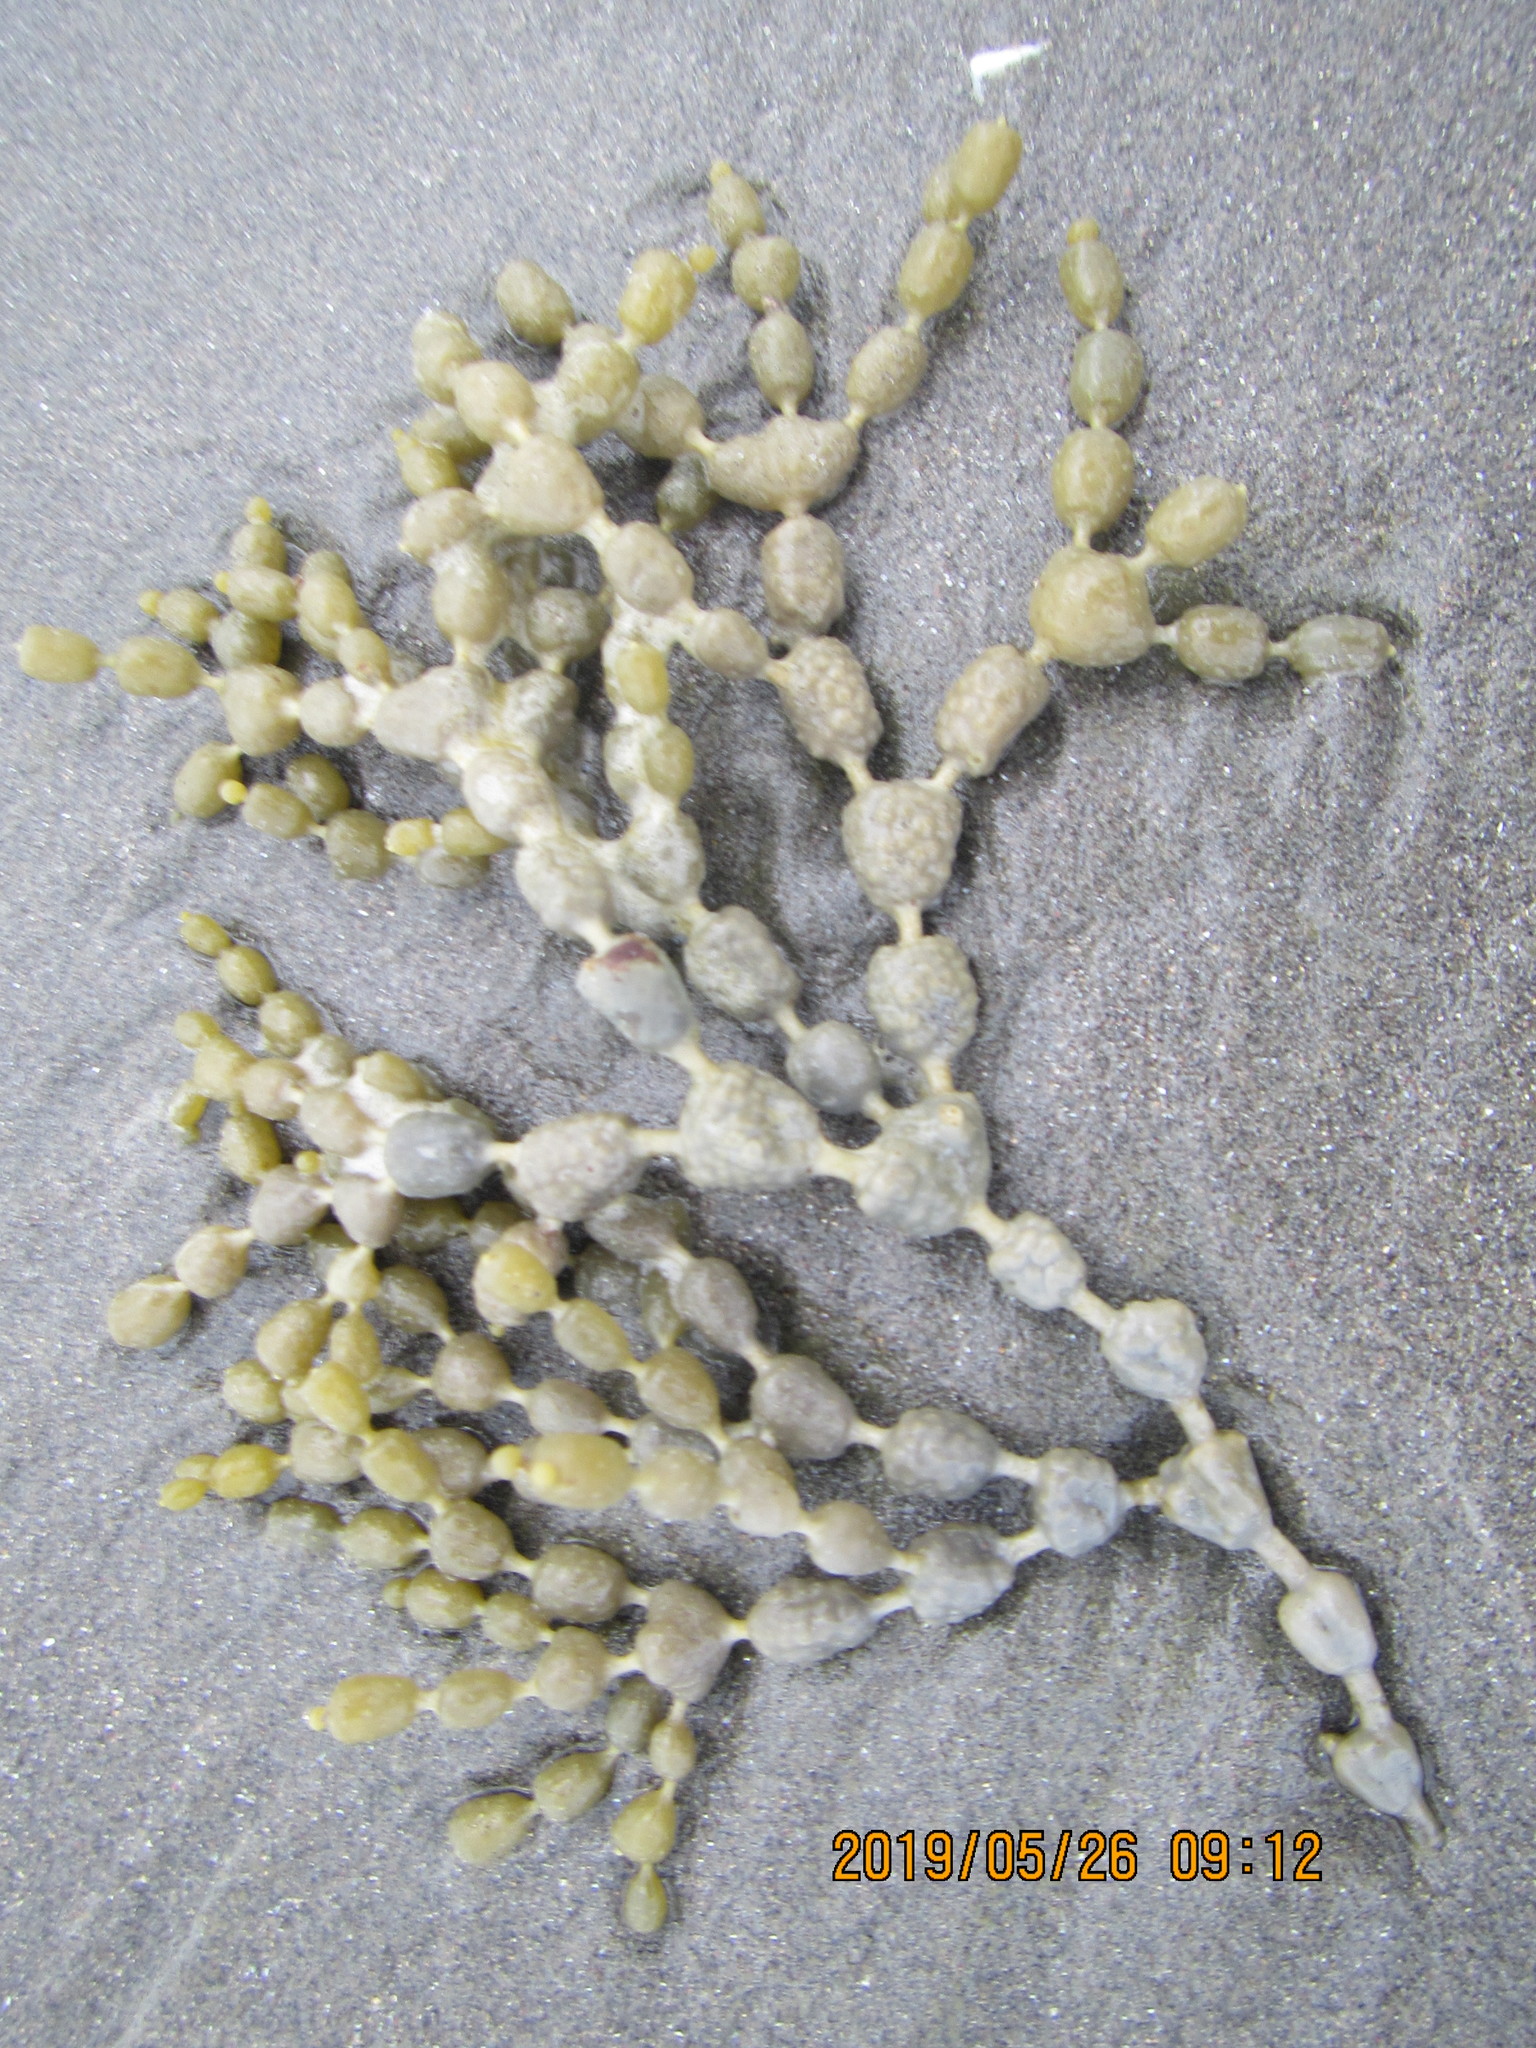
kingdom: Chromista
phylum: Ochrophyta
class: Phaeophyceae
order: Fucales
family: Hormosiraceae
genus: Hormosira
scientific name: Hormosira banksii
